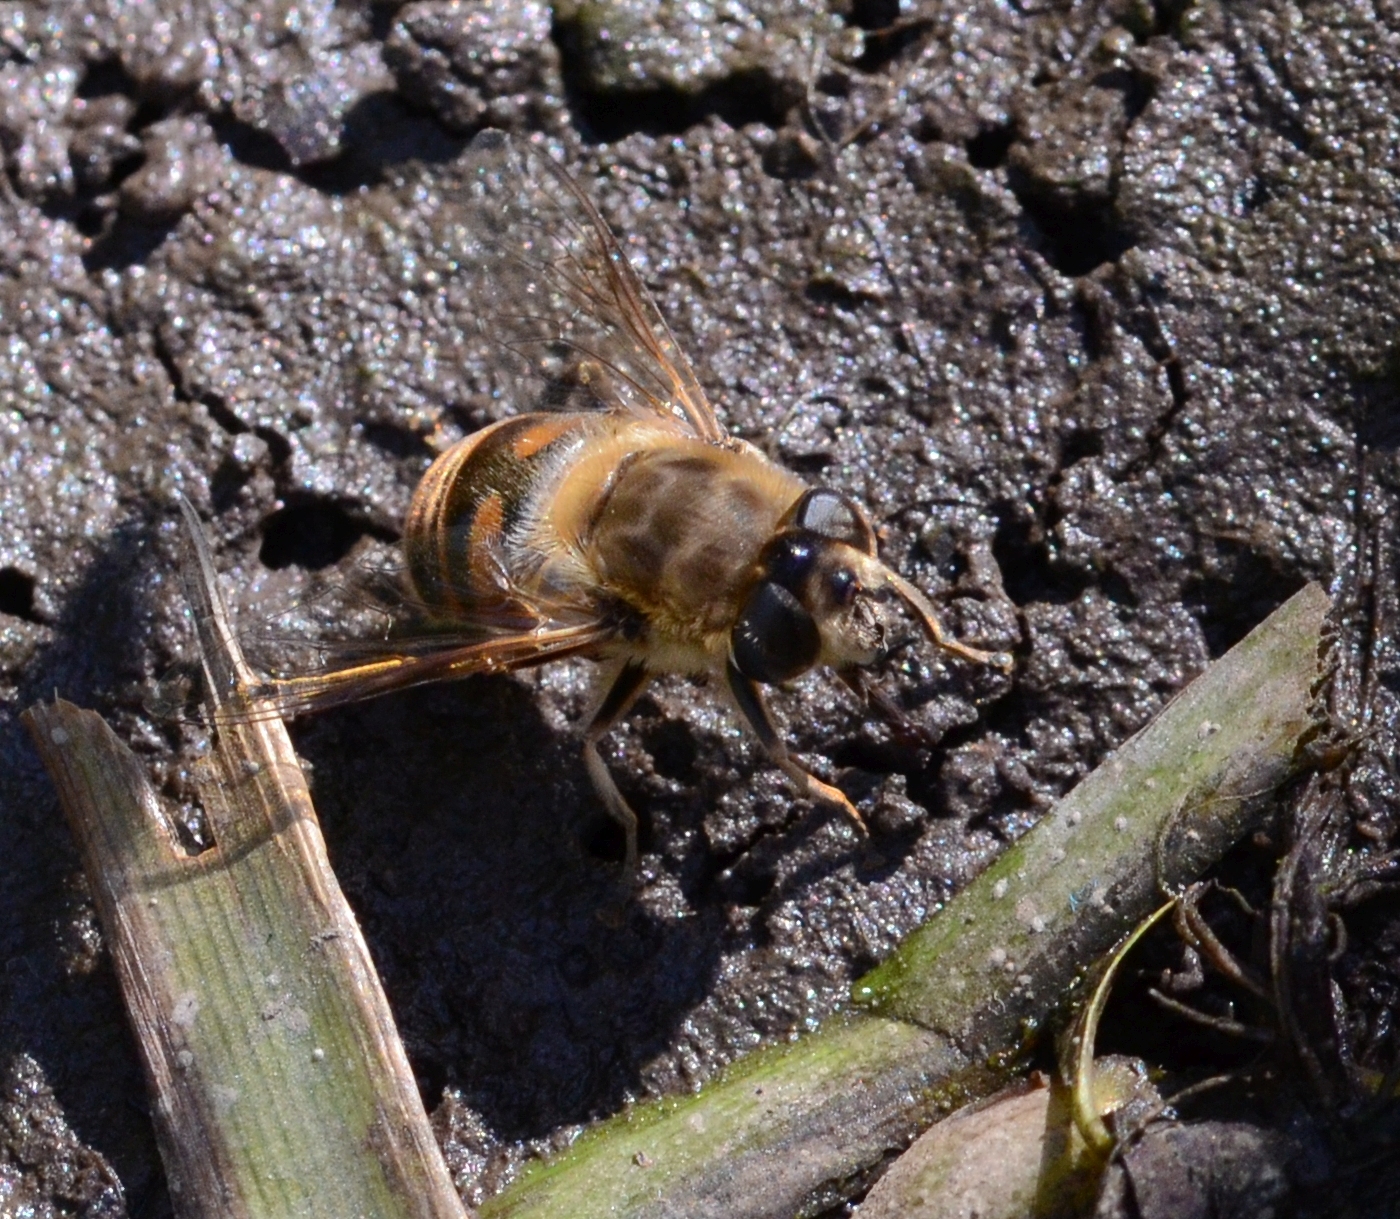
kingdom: Animalia
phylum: Arthropoda
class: Insecta
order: Diptera
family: Syrphidae
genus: Eristalis
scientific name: Eristalis tenax
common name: Drone fly
